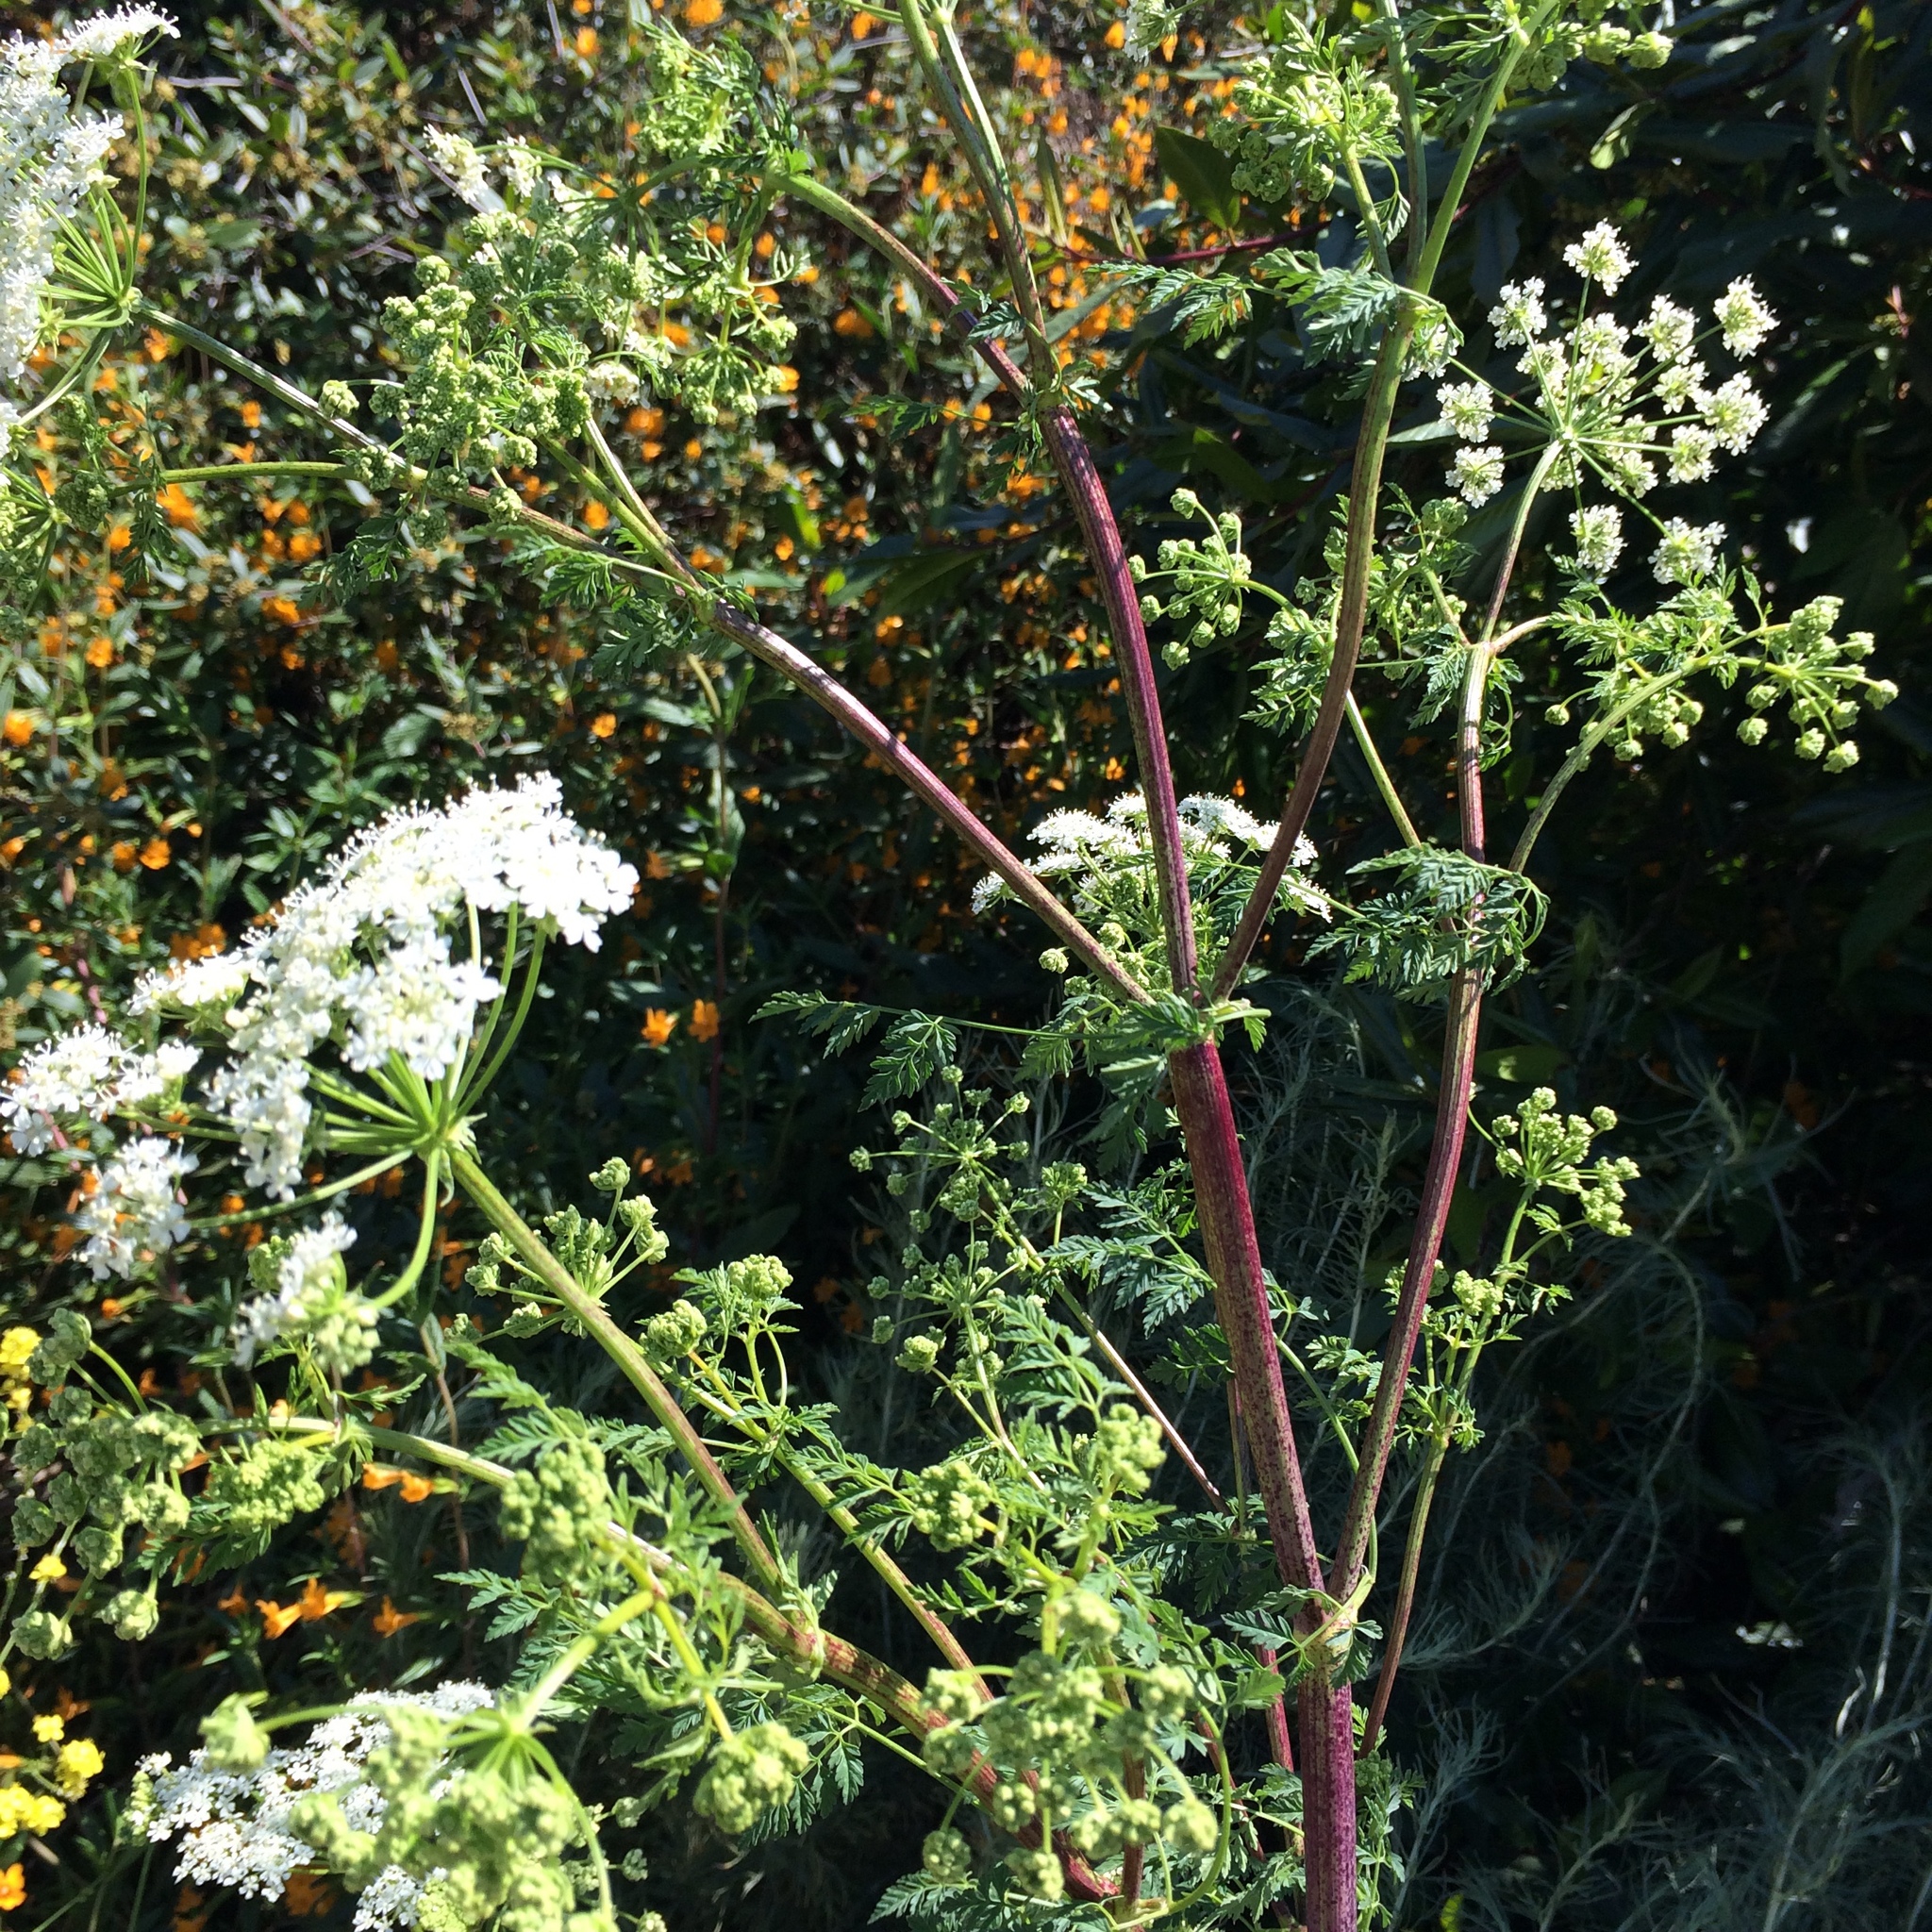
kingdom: Plantae
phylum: Tracheophyta
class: Magnoliopsida
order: Apiales
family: Apiaceae
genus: Conium
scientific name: Conium maculatum
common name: Hemlock
